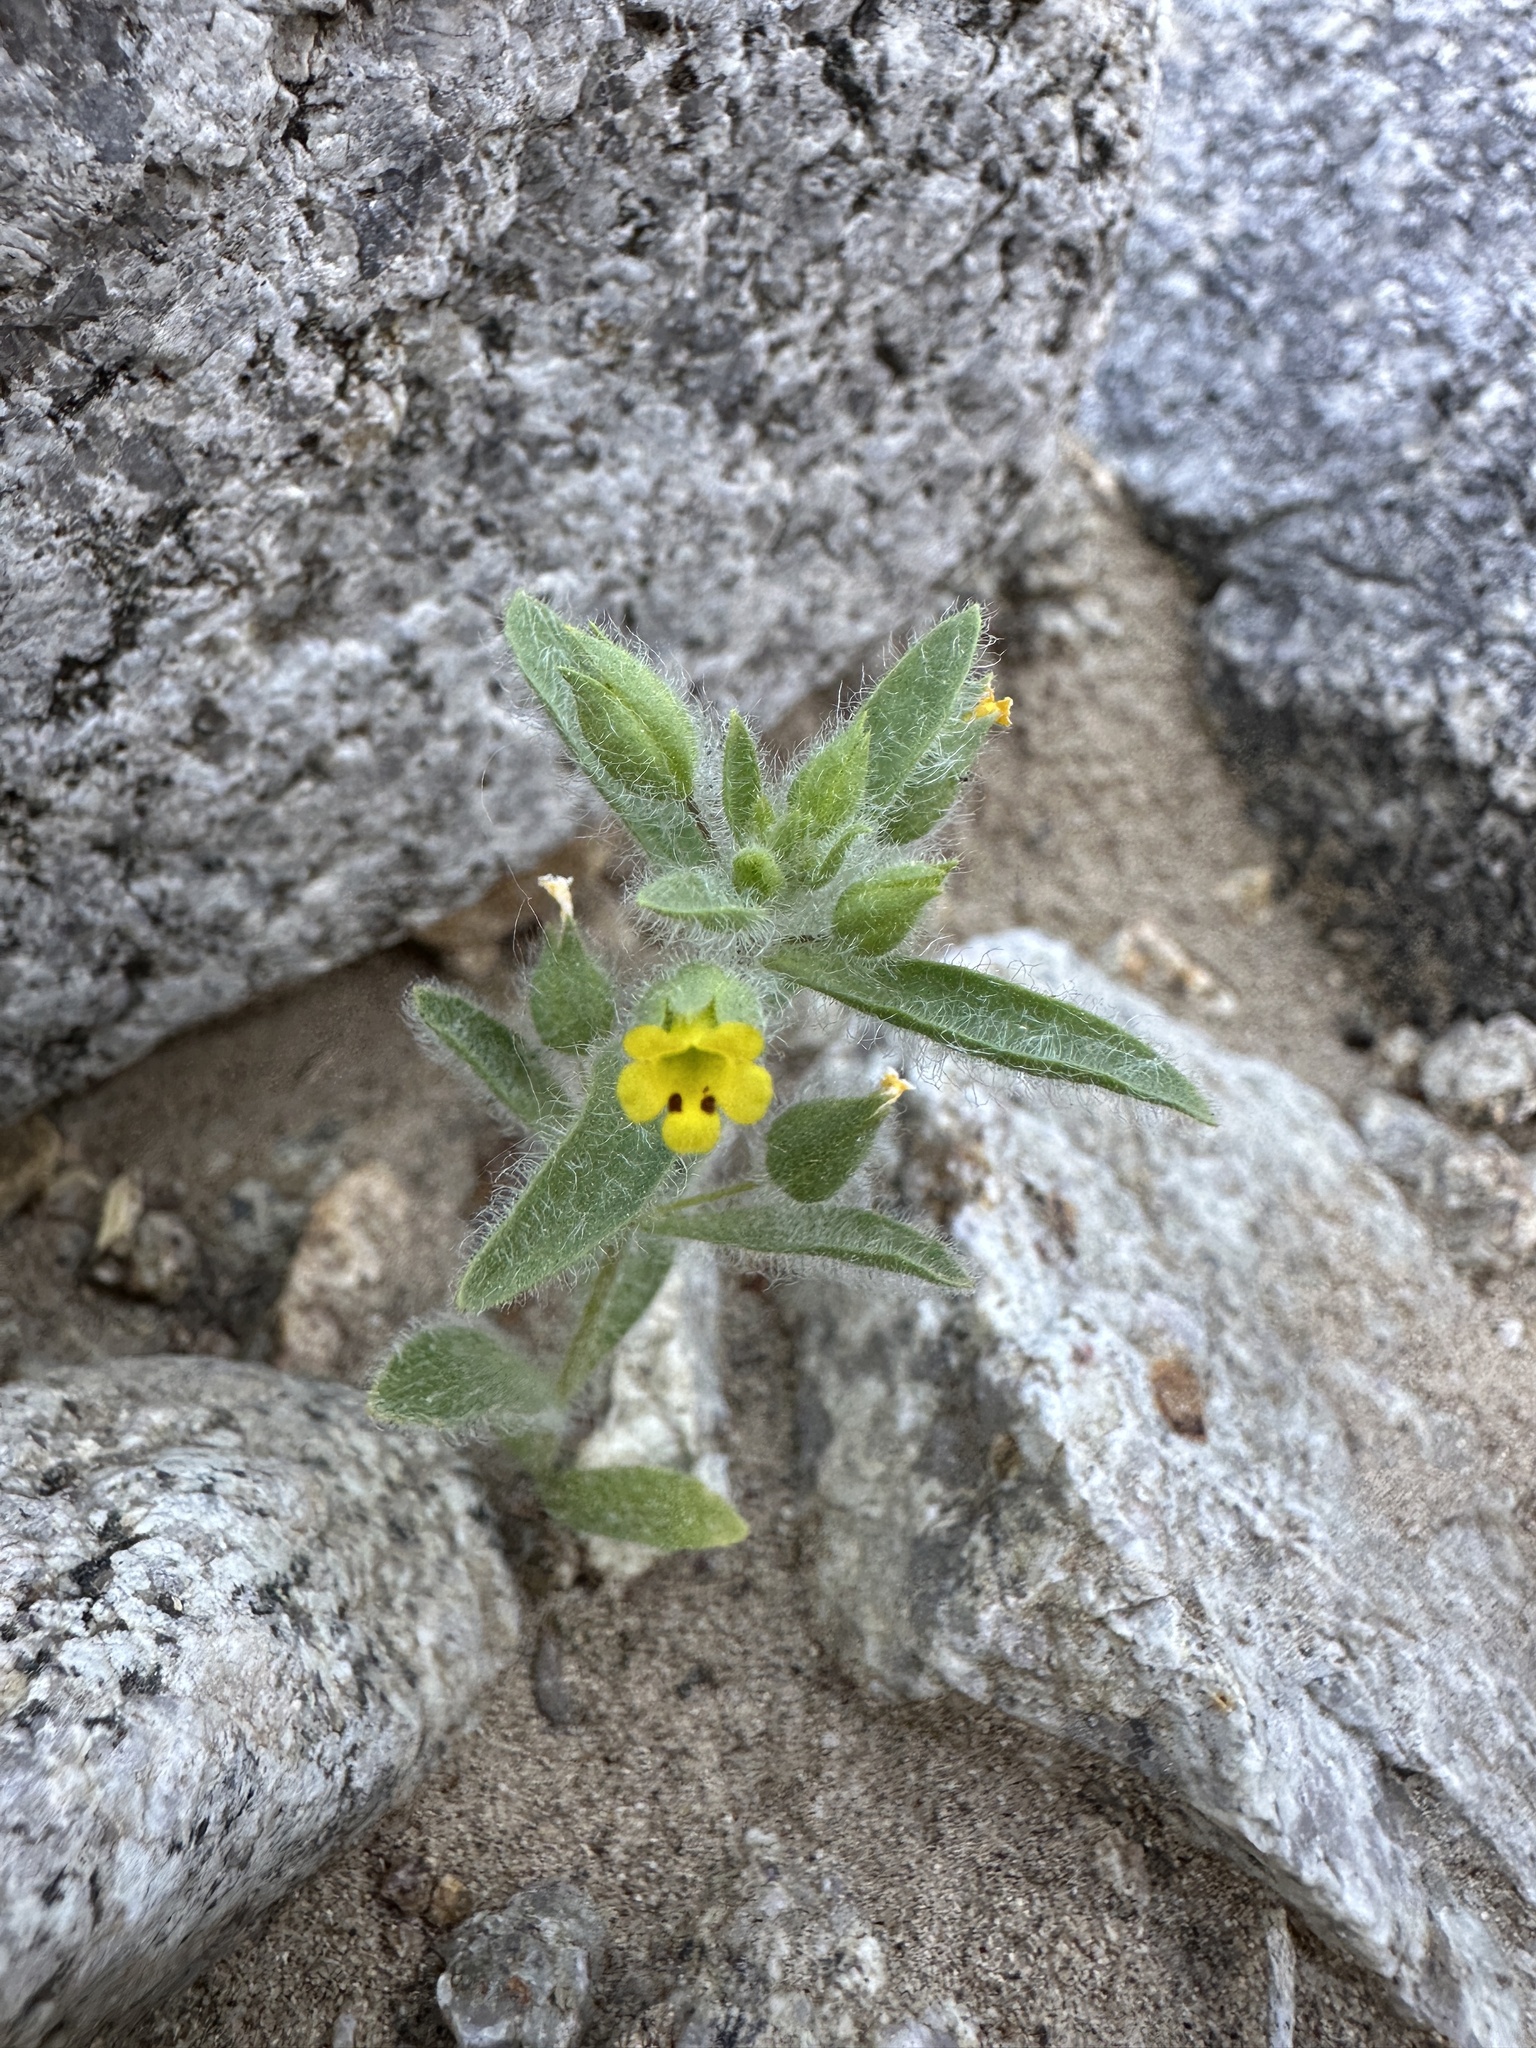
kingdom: Plantae
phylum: Tracheophyta
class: Magnoliopsida
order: Lamiales
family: Phrymaceae
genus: Mimetanthe
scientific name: Mimetanthe pilosa
